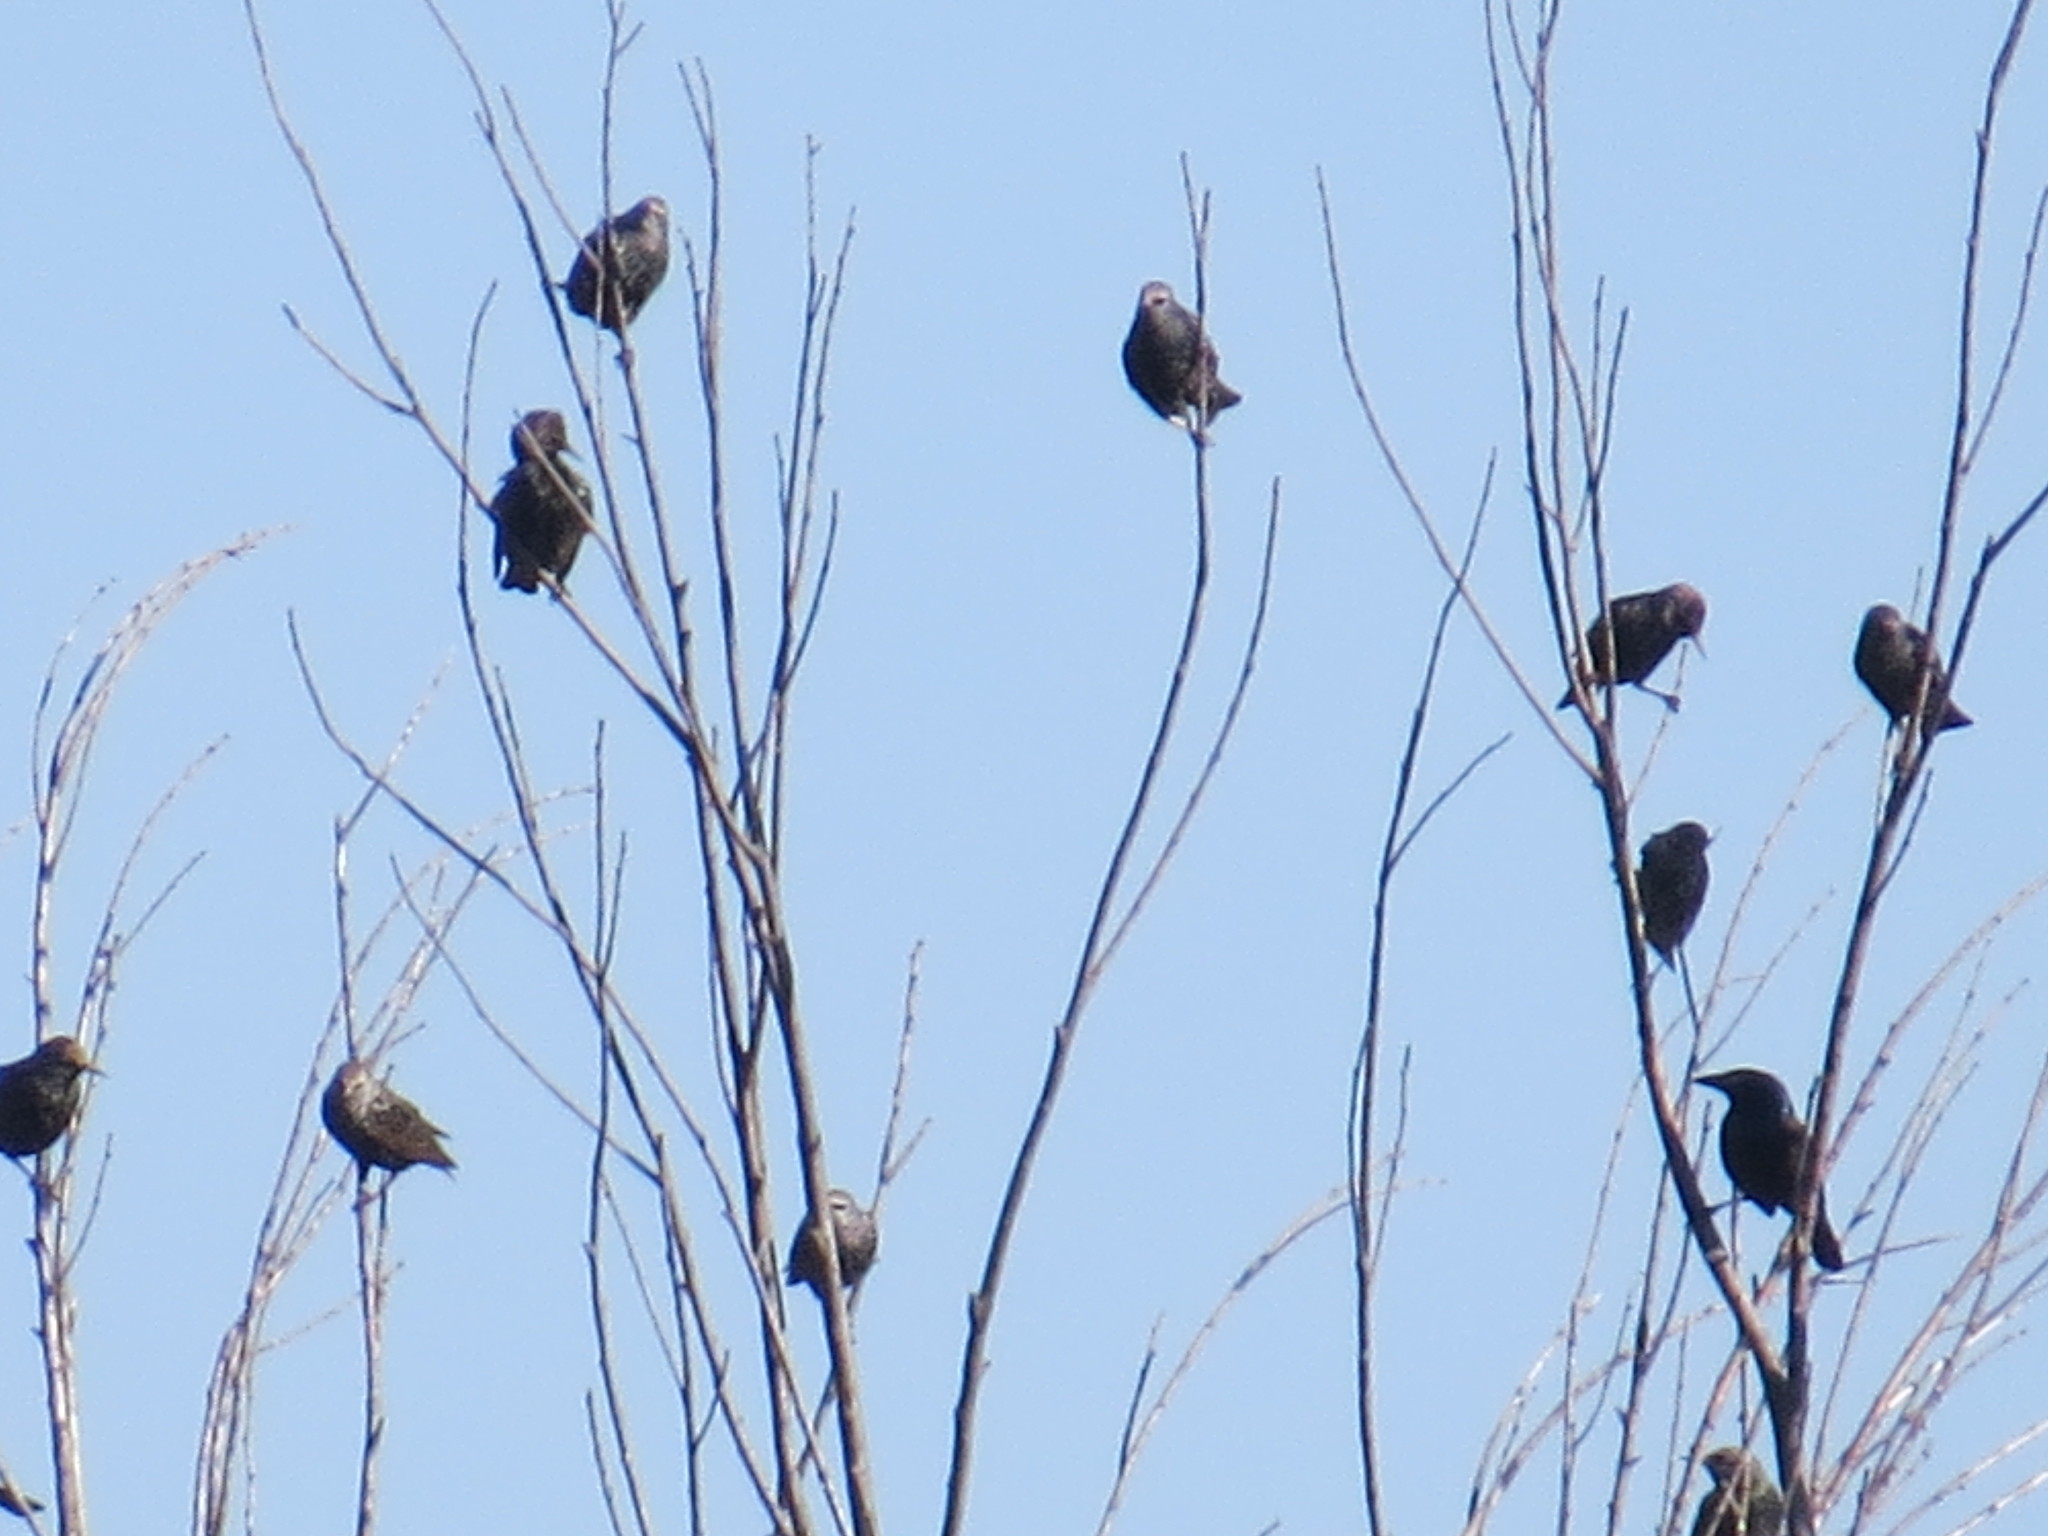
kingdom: Animalia
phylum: Chordata
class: Aves
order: Passeriformes
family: Sturnidae
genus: Sturnus
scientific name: Sturnus vulgaris
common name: Common starling
